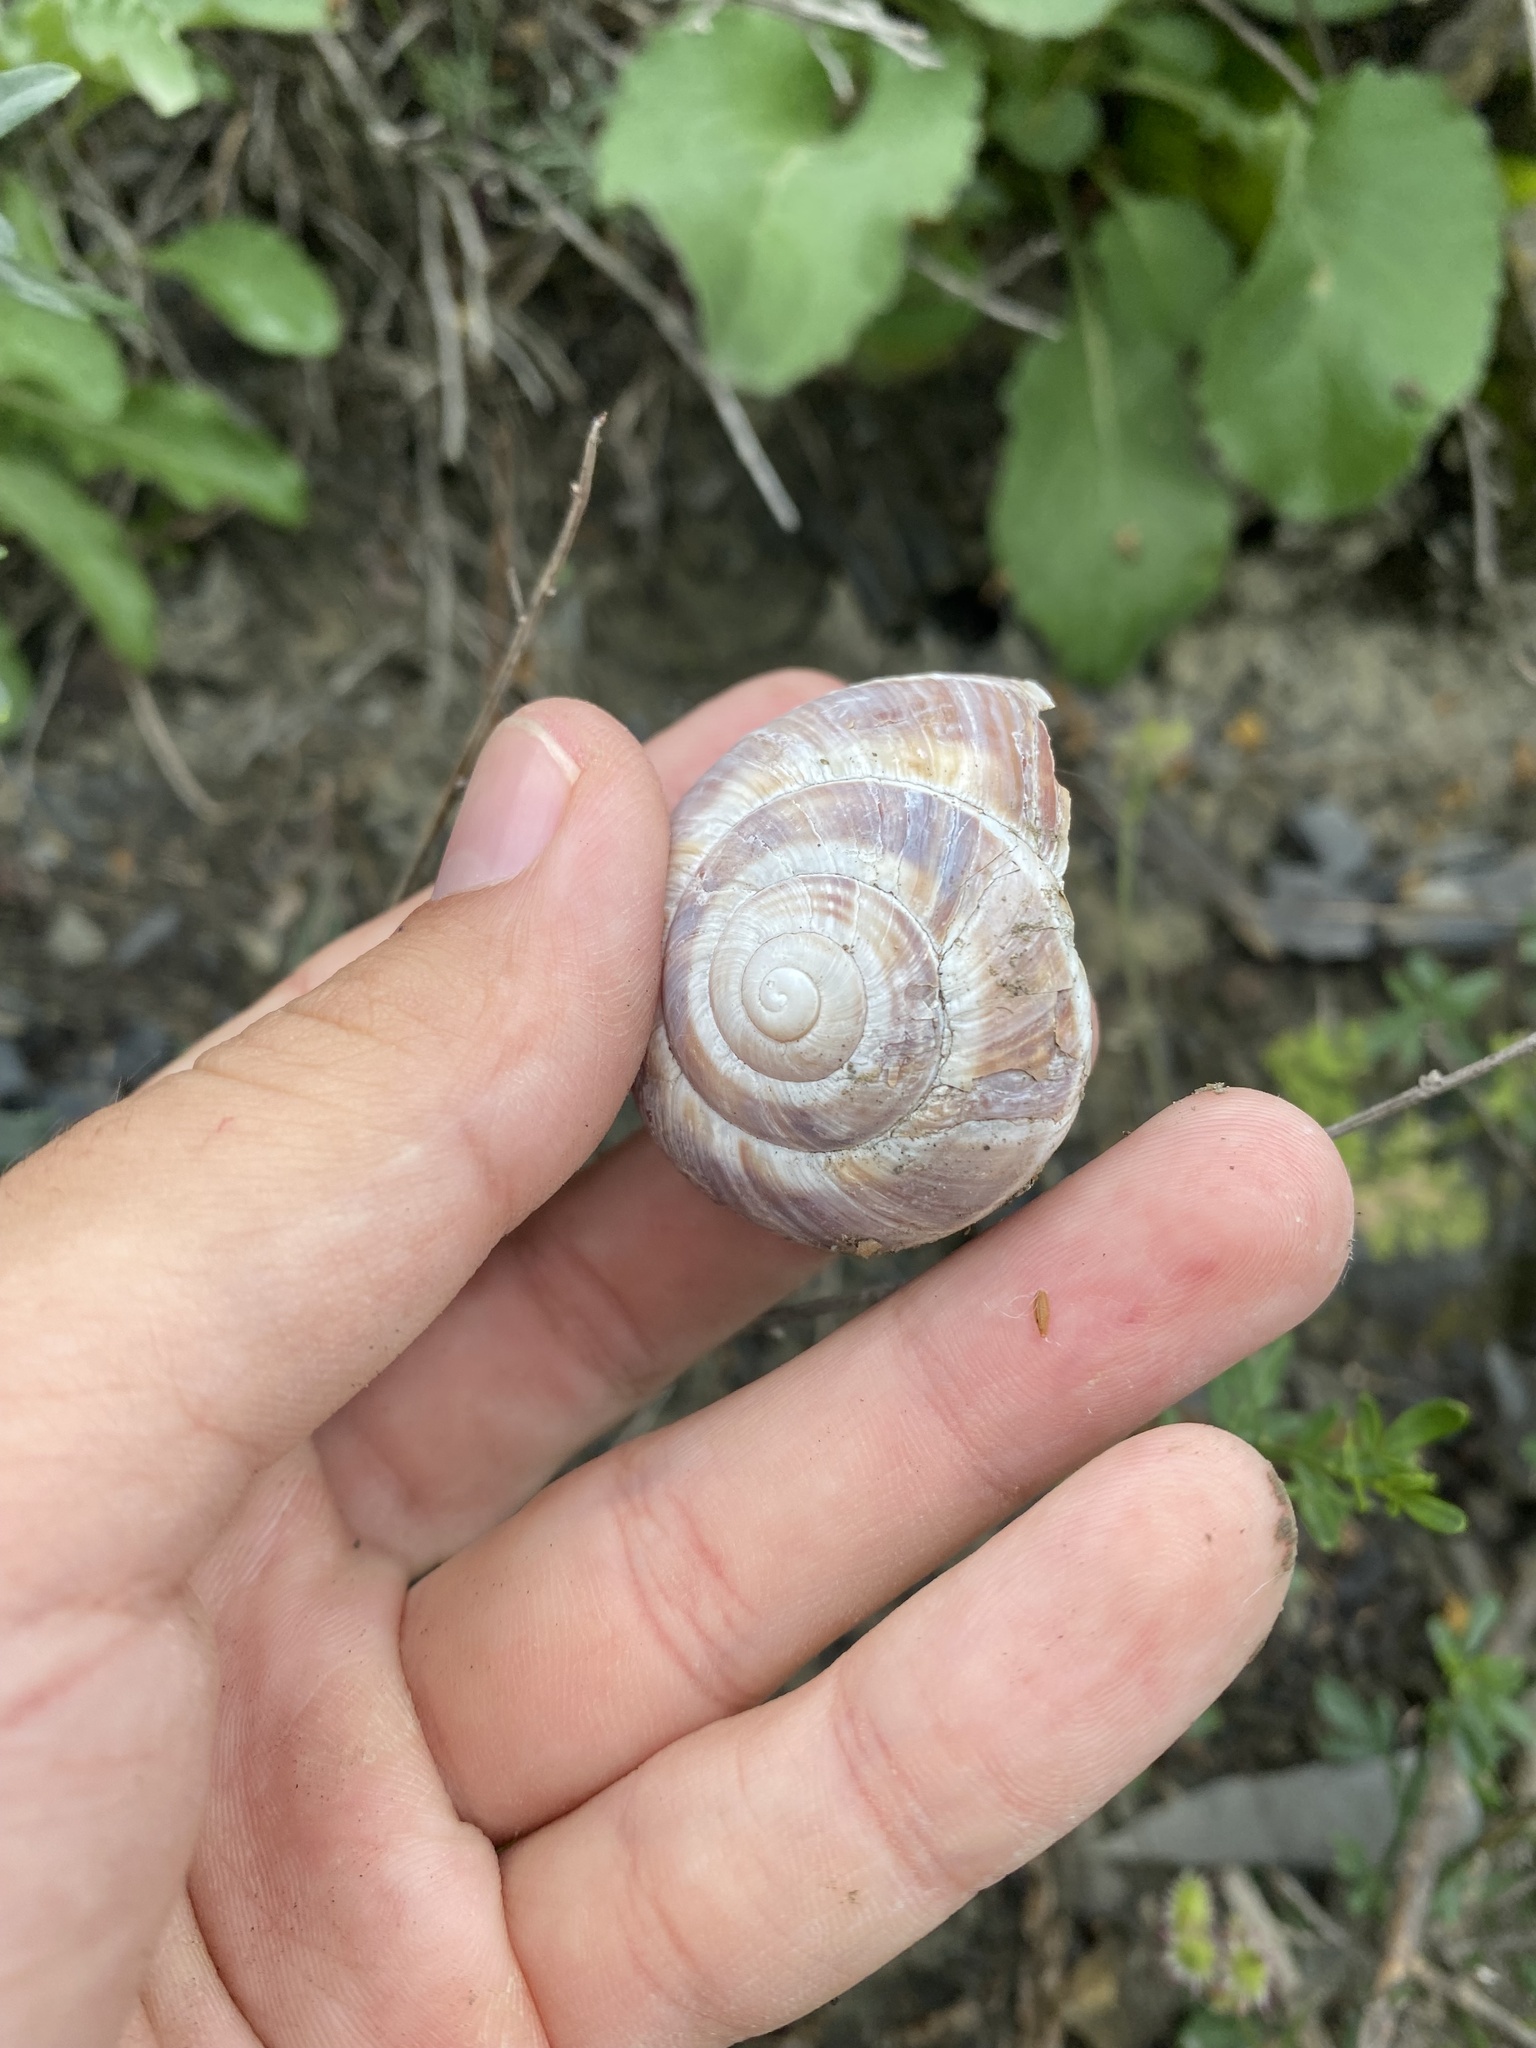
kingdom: Animalia
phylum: Mollusca
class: Gastropoda
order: Stylommatophora
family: Helicidae
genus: Helix
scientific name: Helix lucorum
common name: Turkish snail
